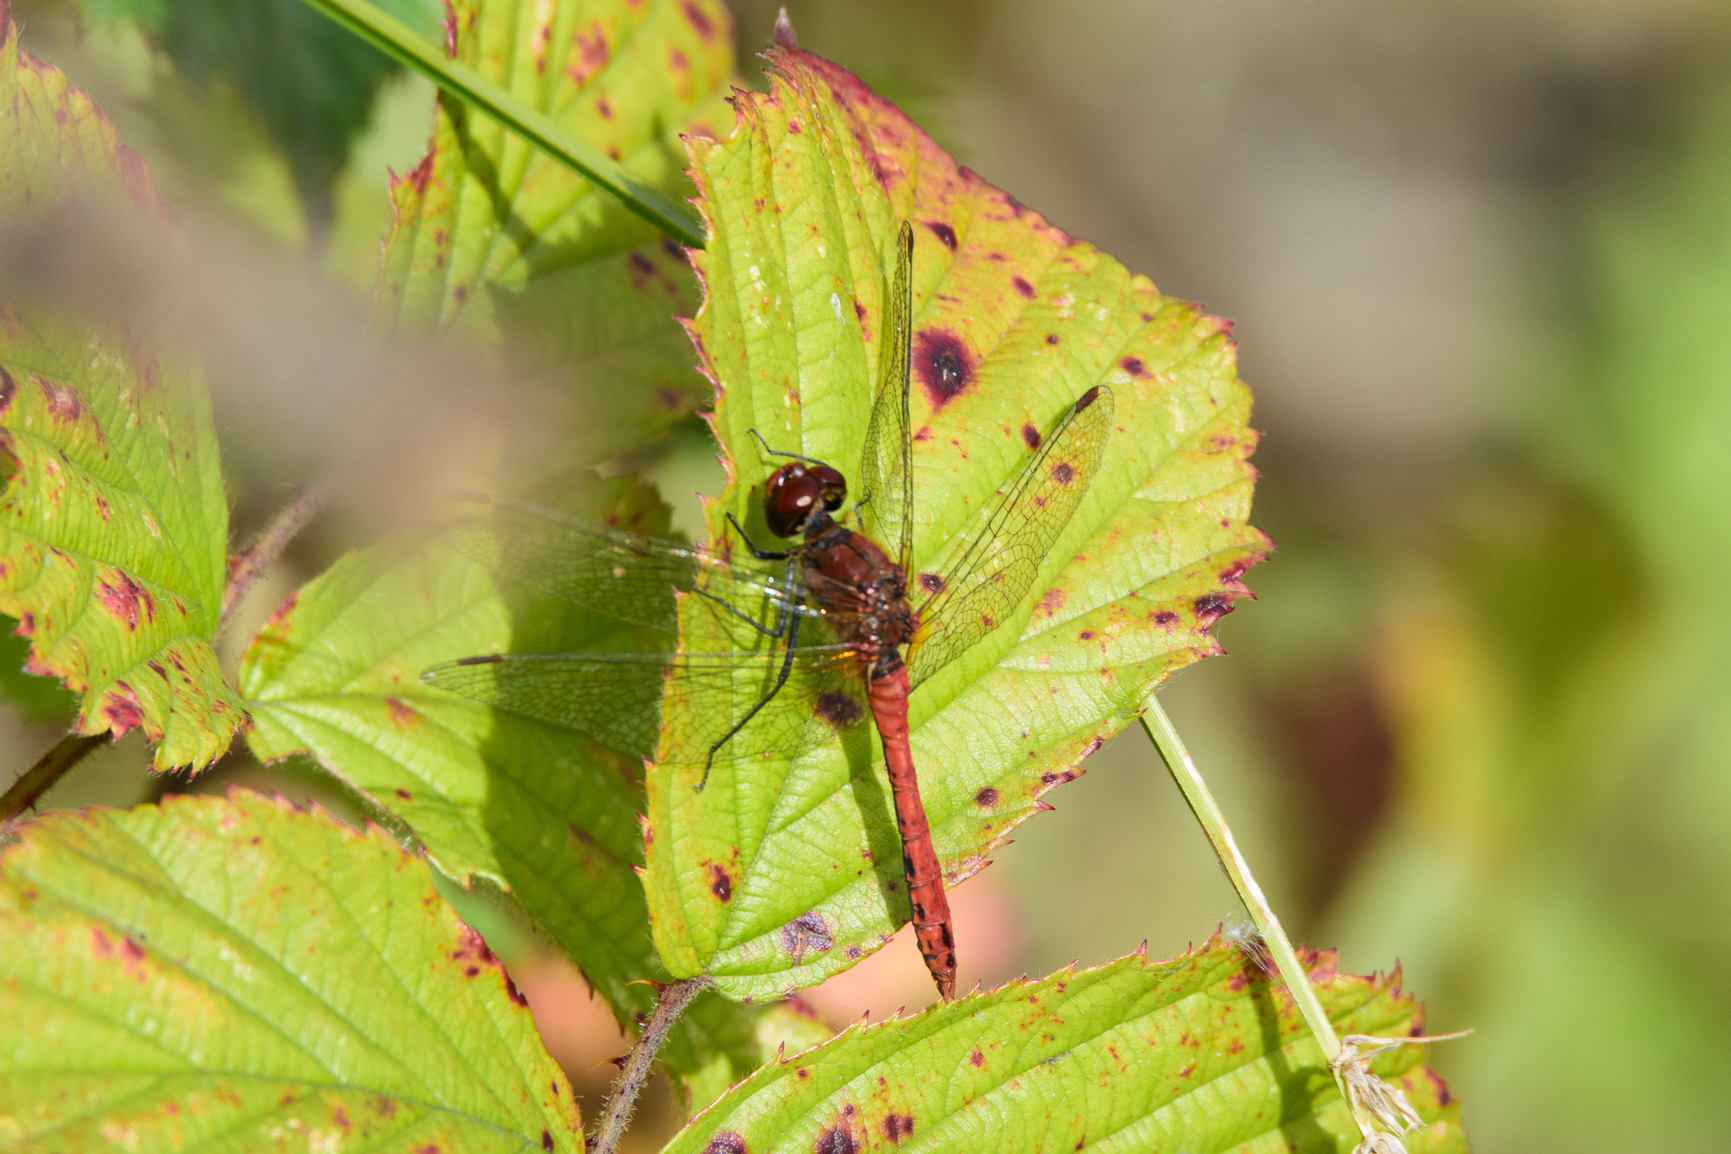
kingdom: Animalia
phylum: Arthropoda
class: Insecta
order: Odonata
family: Libellulidae
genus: Sympetrum
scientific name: Sympetrum sanguineum
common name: Ruddy darter
